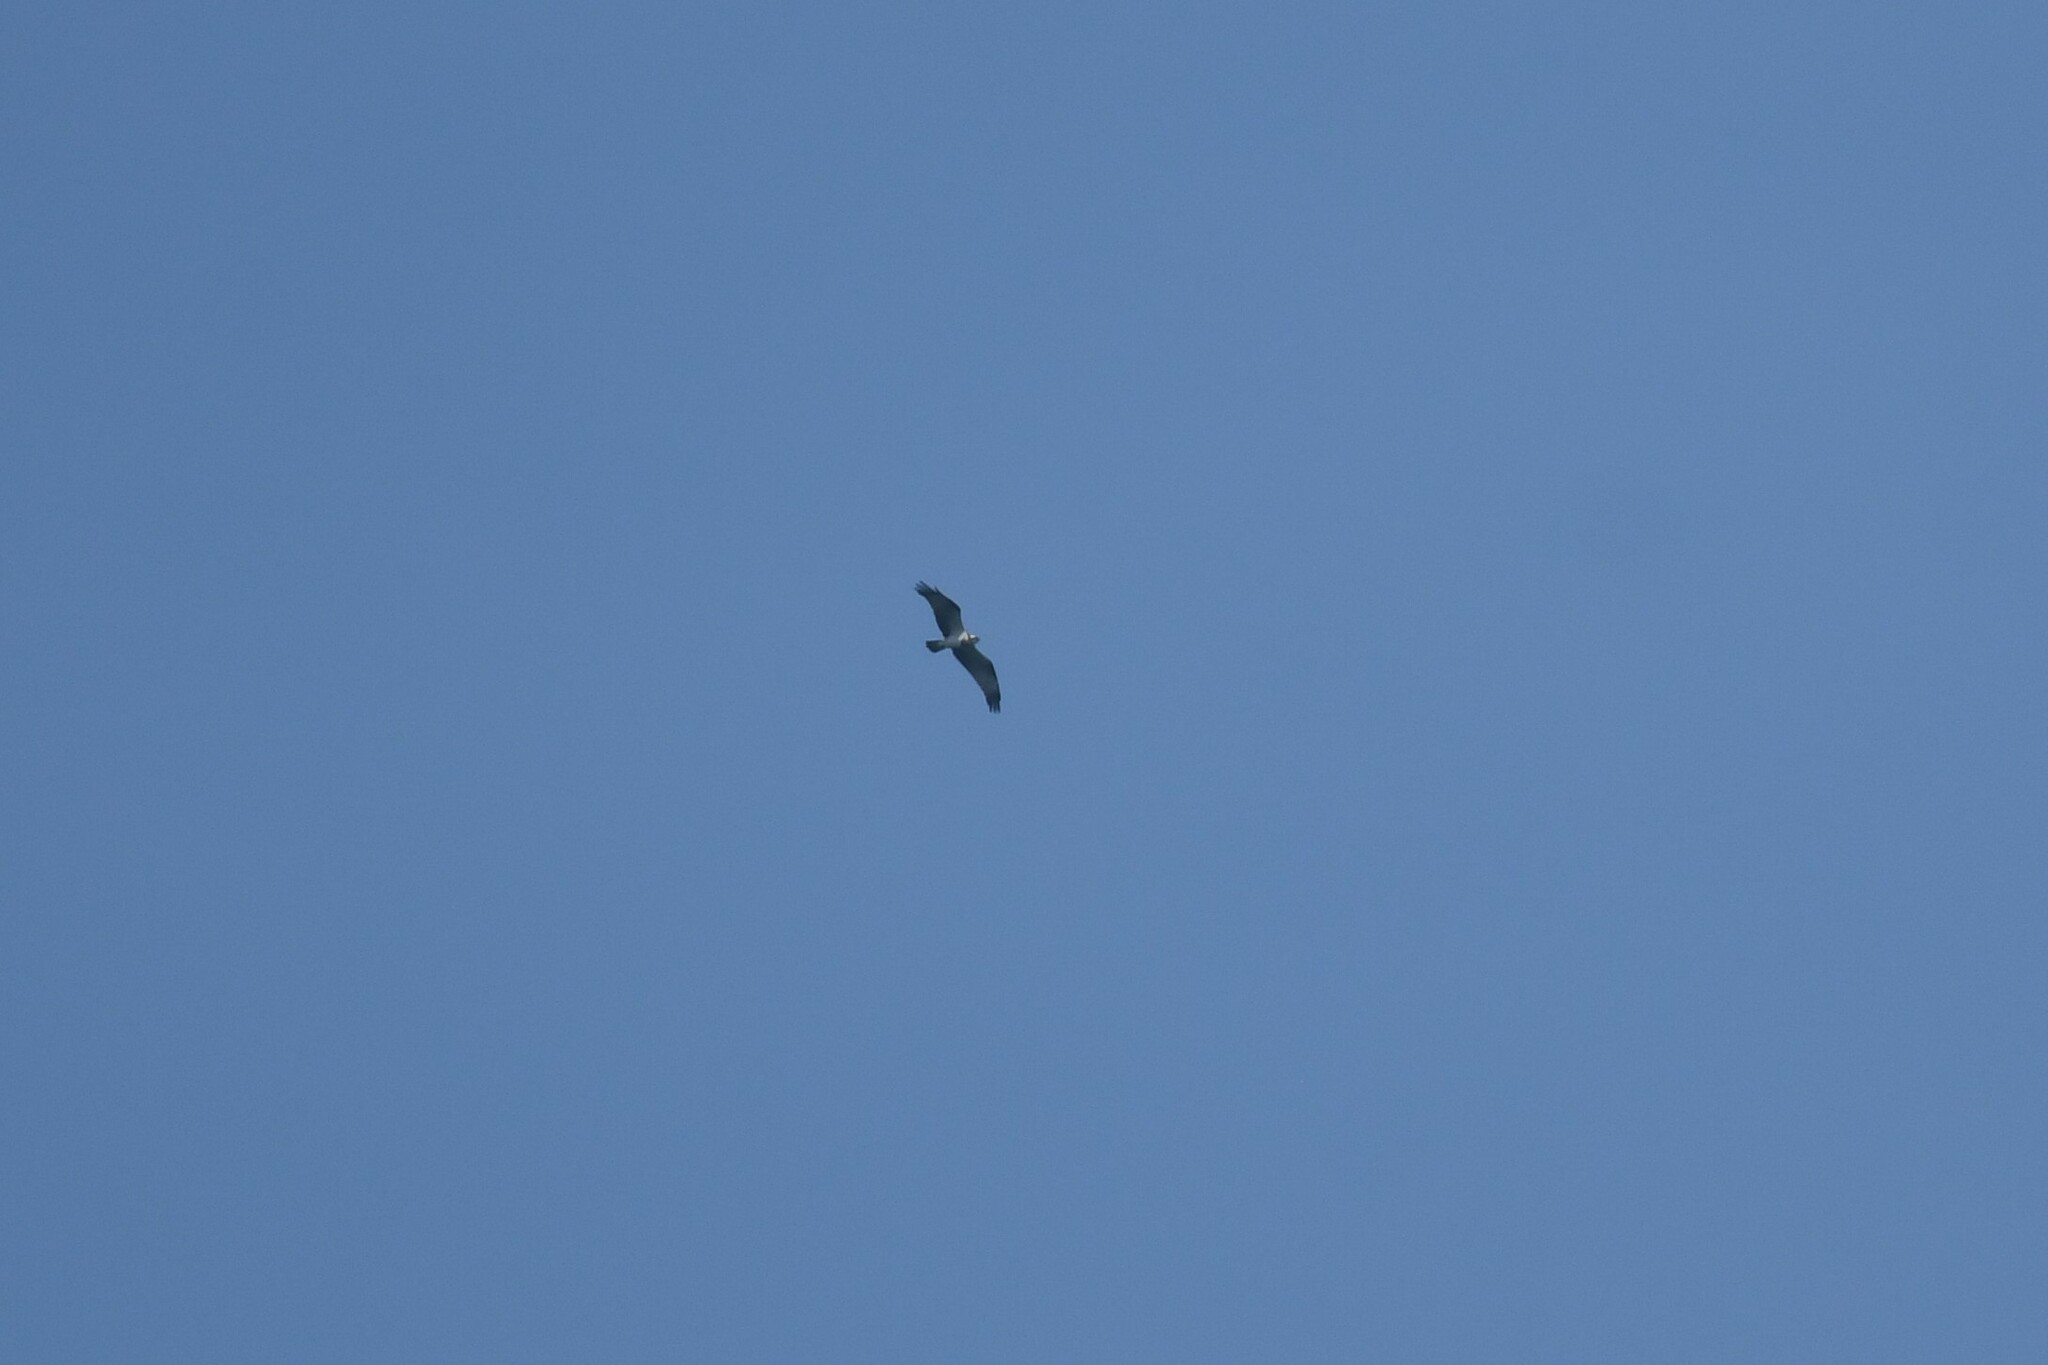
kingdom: Animalia
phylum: Chordata
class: Aves
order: Accipitriformes
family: Pandionidae
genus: Pandion
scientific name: Pandion haliaetus
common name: Osprey
